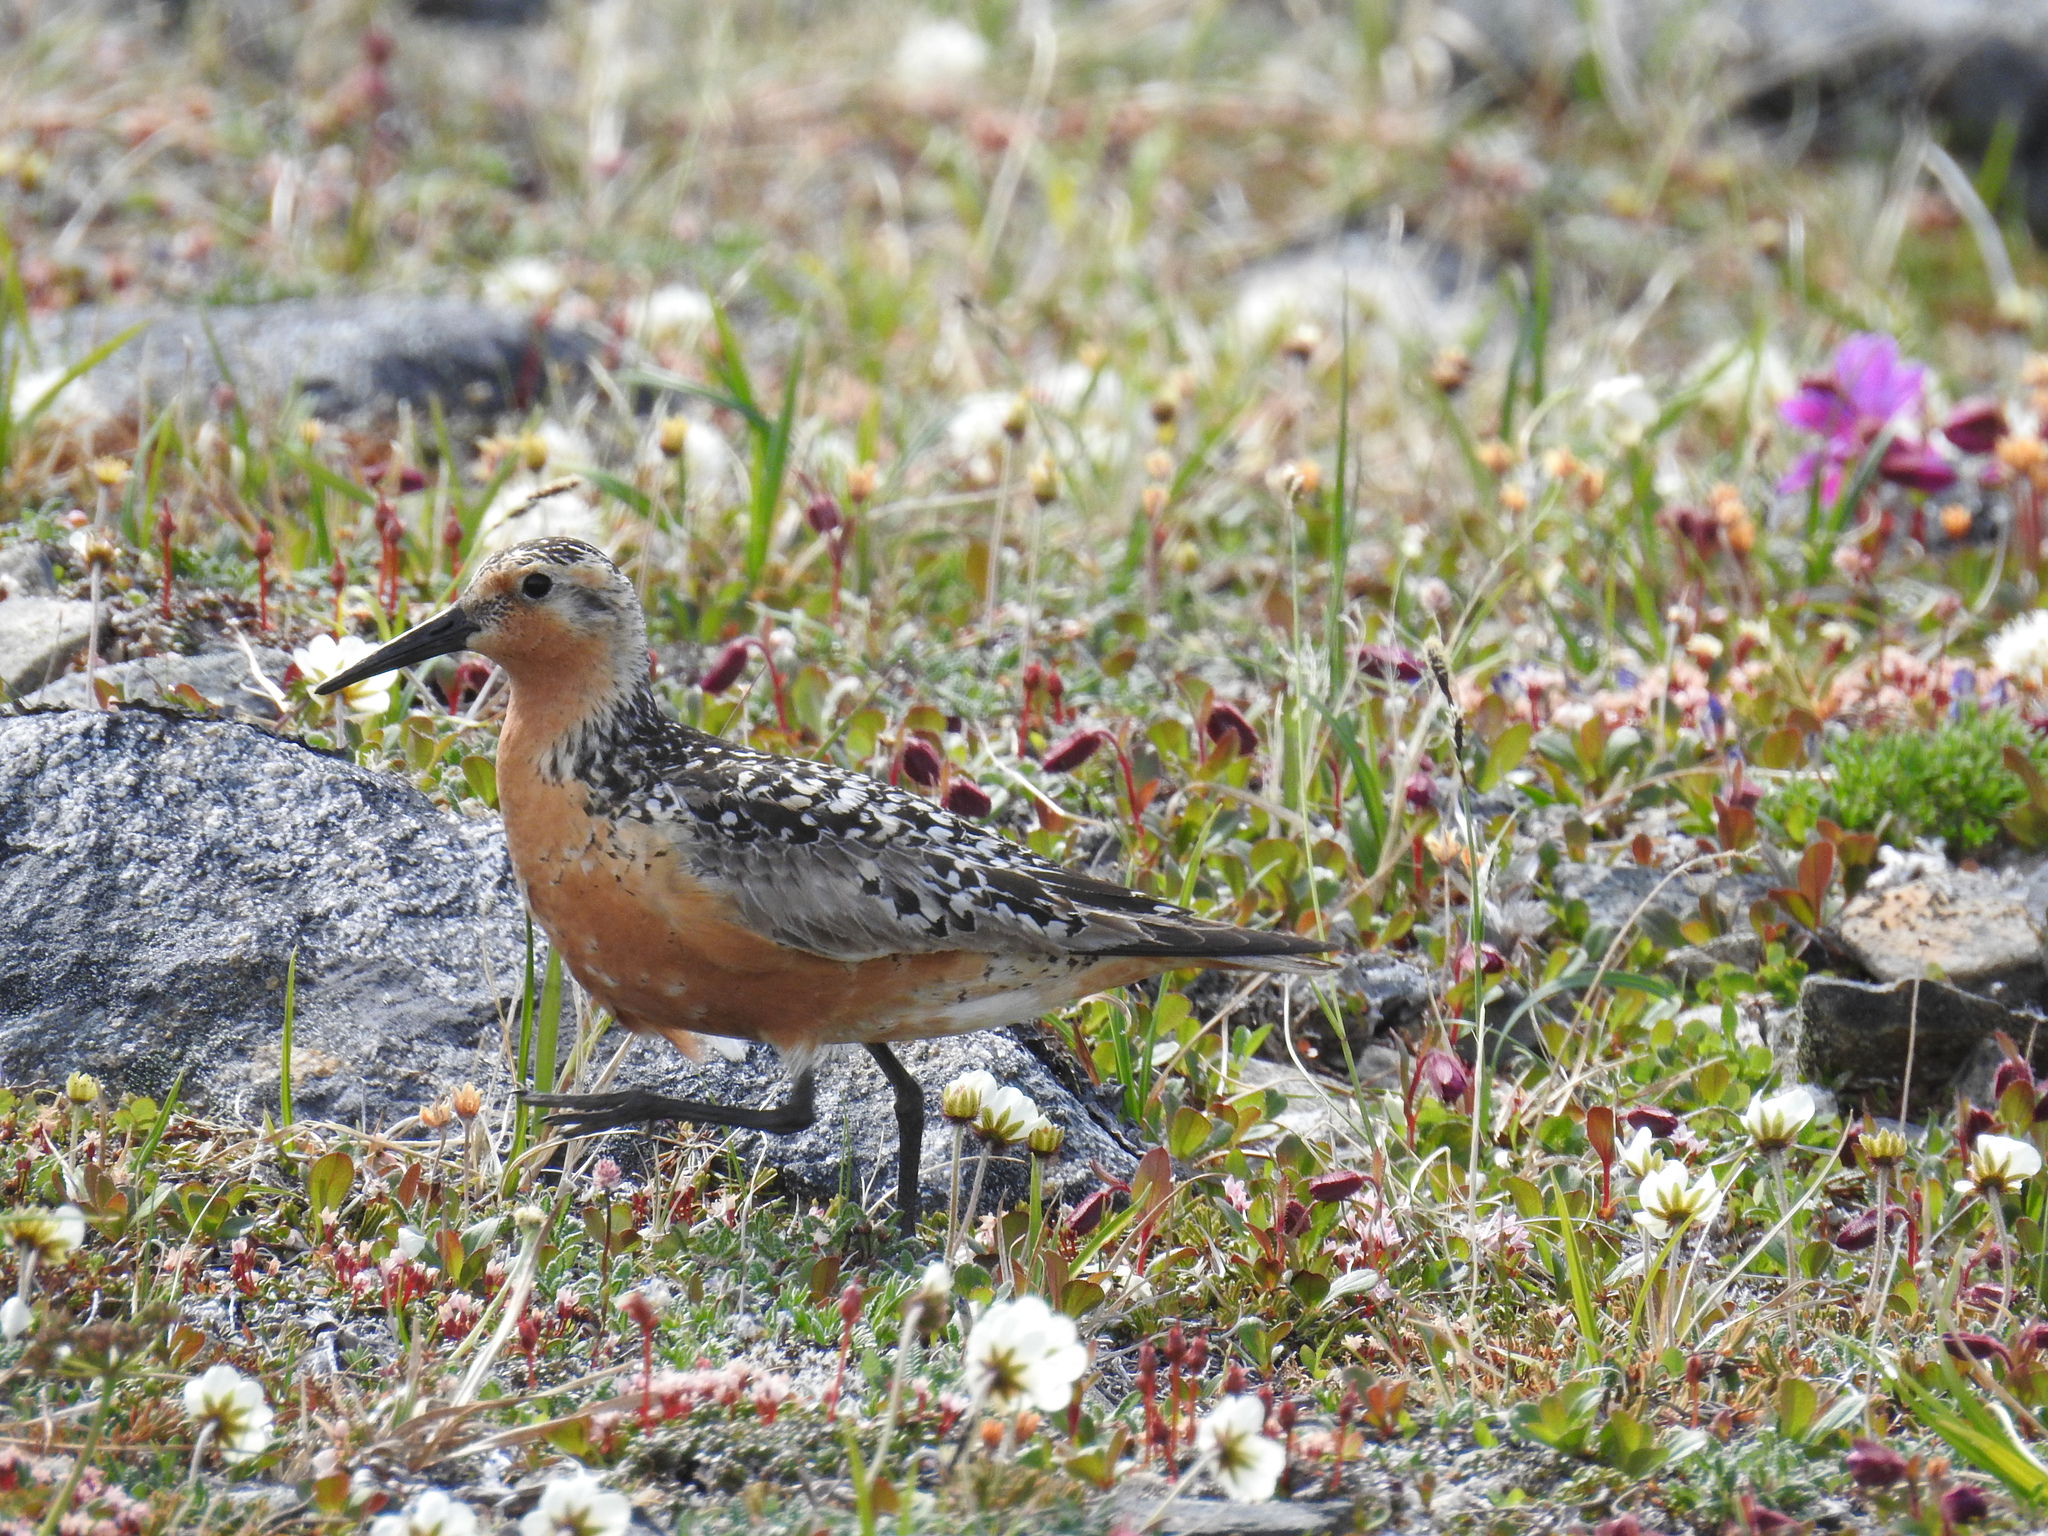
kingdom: Animalia
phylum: Chordata
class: Aves
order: Charadriiformes
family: Scolopacidae
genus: Calidris
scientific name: Calidris canutus
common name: Red knot
